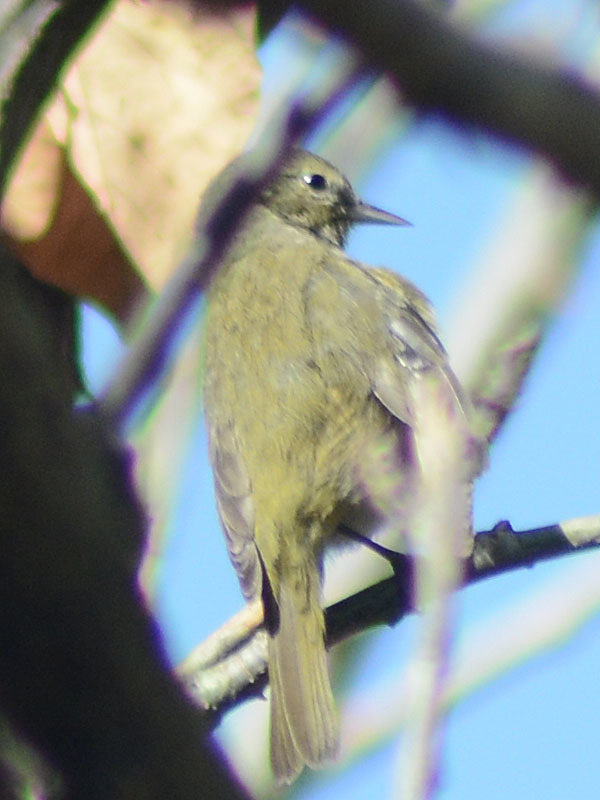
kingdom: Animalia
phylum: Chordata
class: Aves
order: Passeriformes
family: Parulidae
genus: Leiothlypis
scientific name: Leiothlypis celata
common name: Orange-crowned warbler
